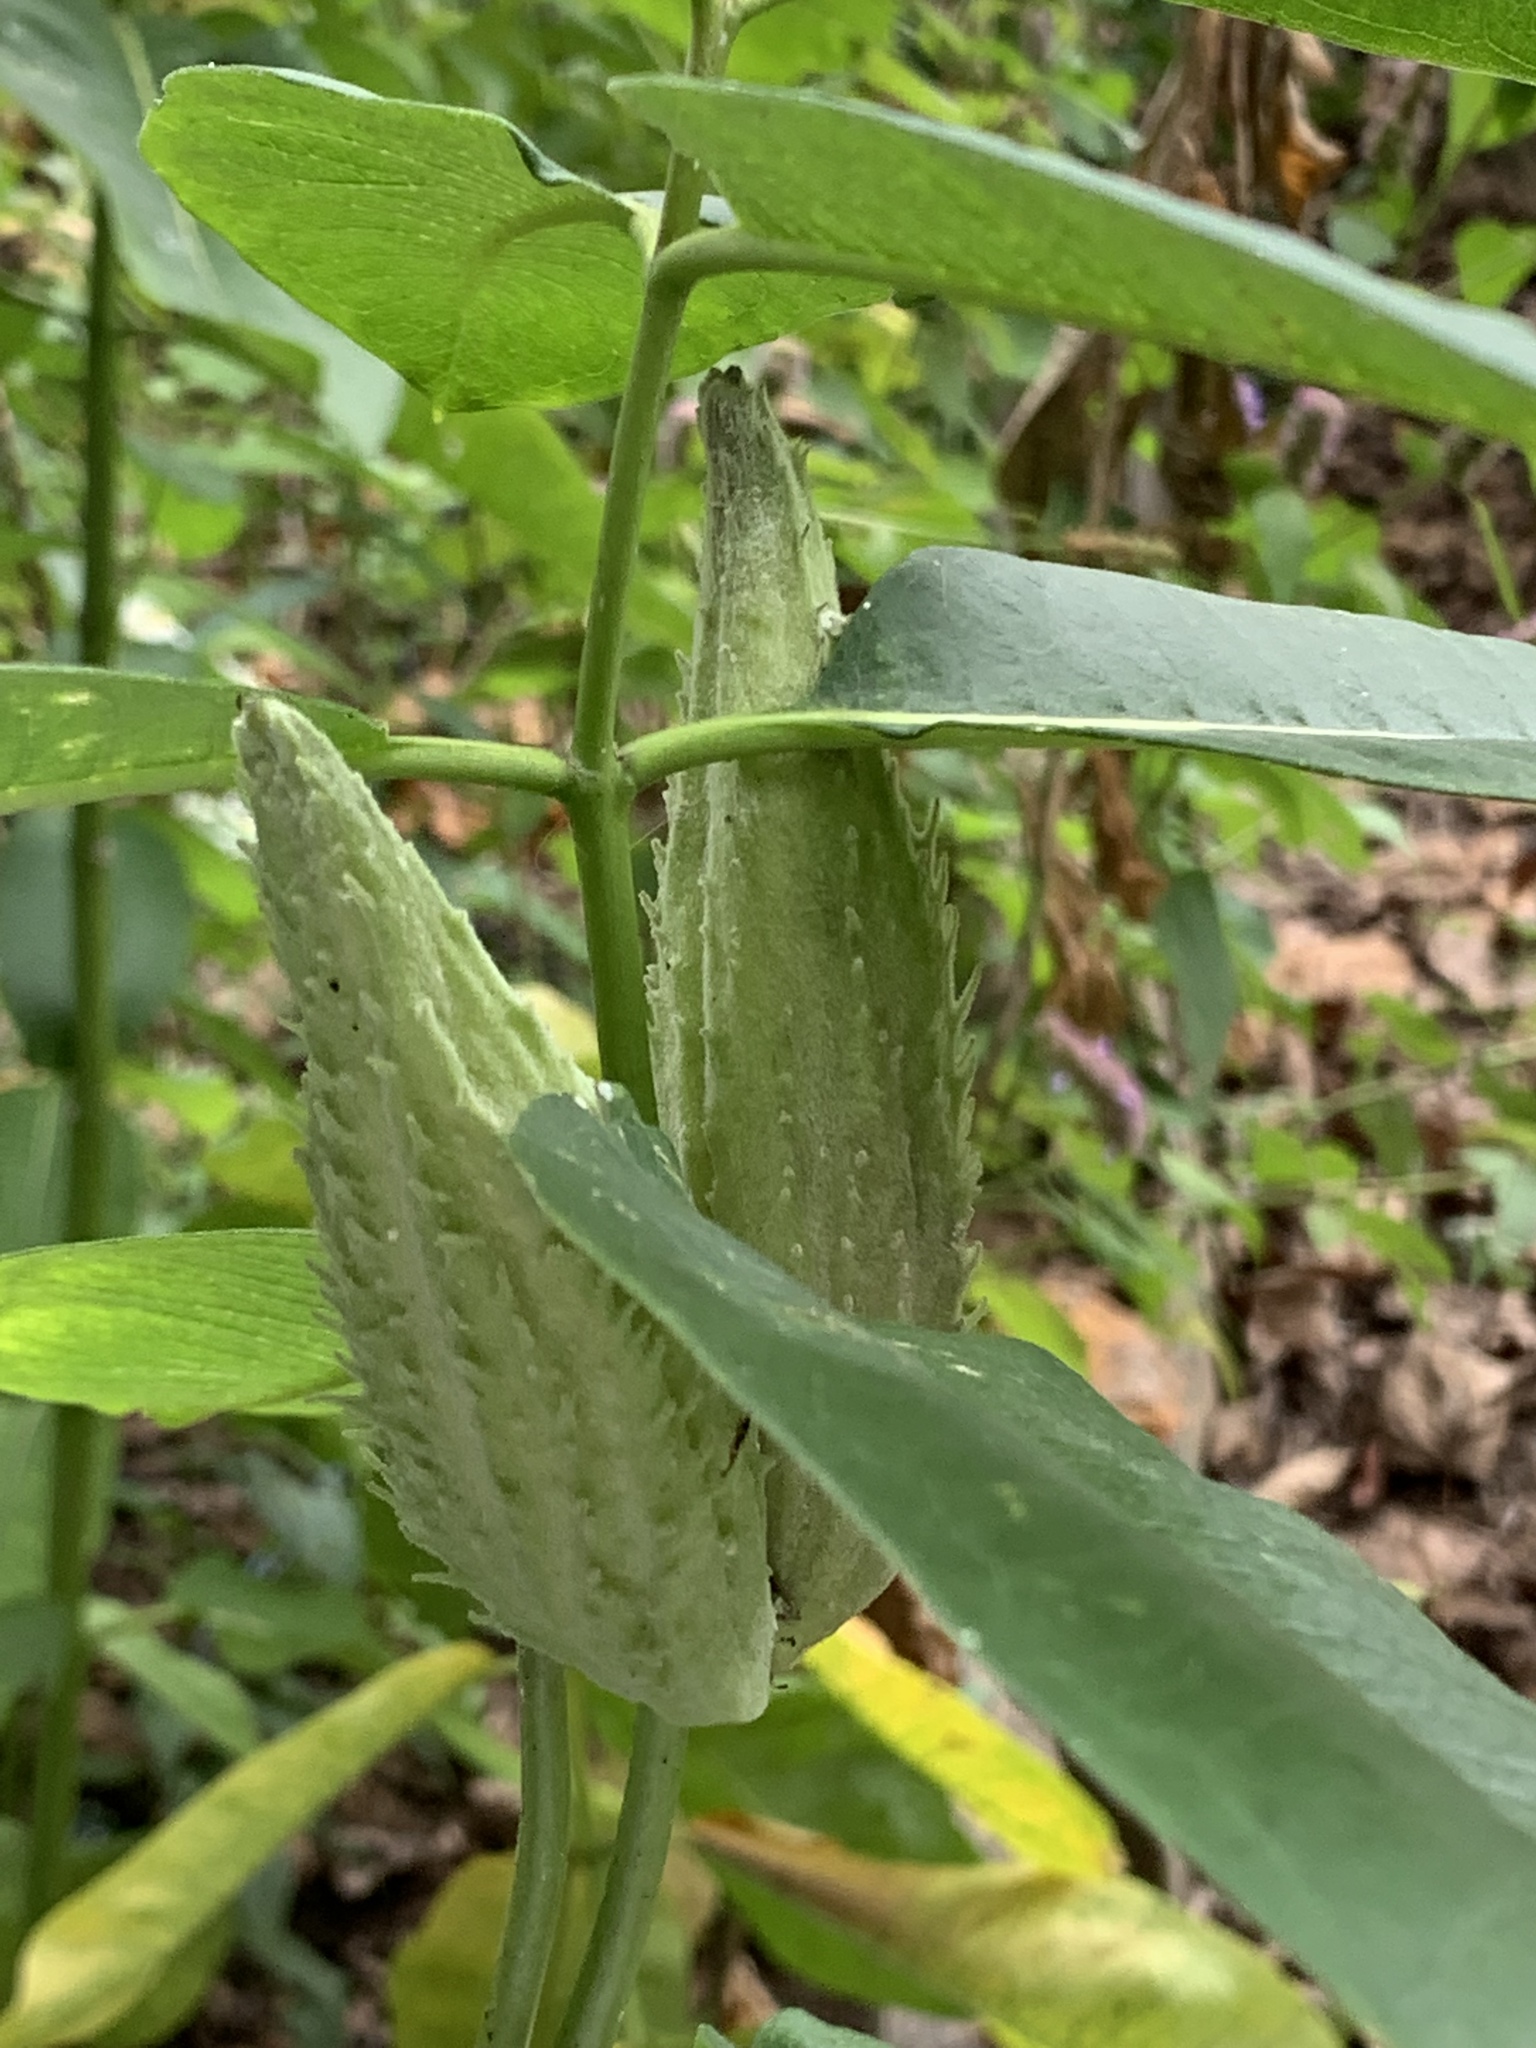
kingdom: Plantae
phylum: Tracheophyta
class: Magnoliopsida
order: Gentianales
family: Apocynaceae
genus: Asclepias
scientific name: Asclepias syriaca
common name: Common milkweed
